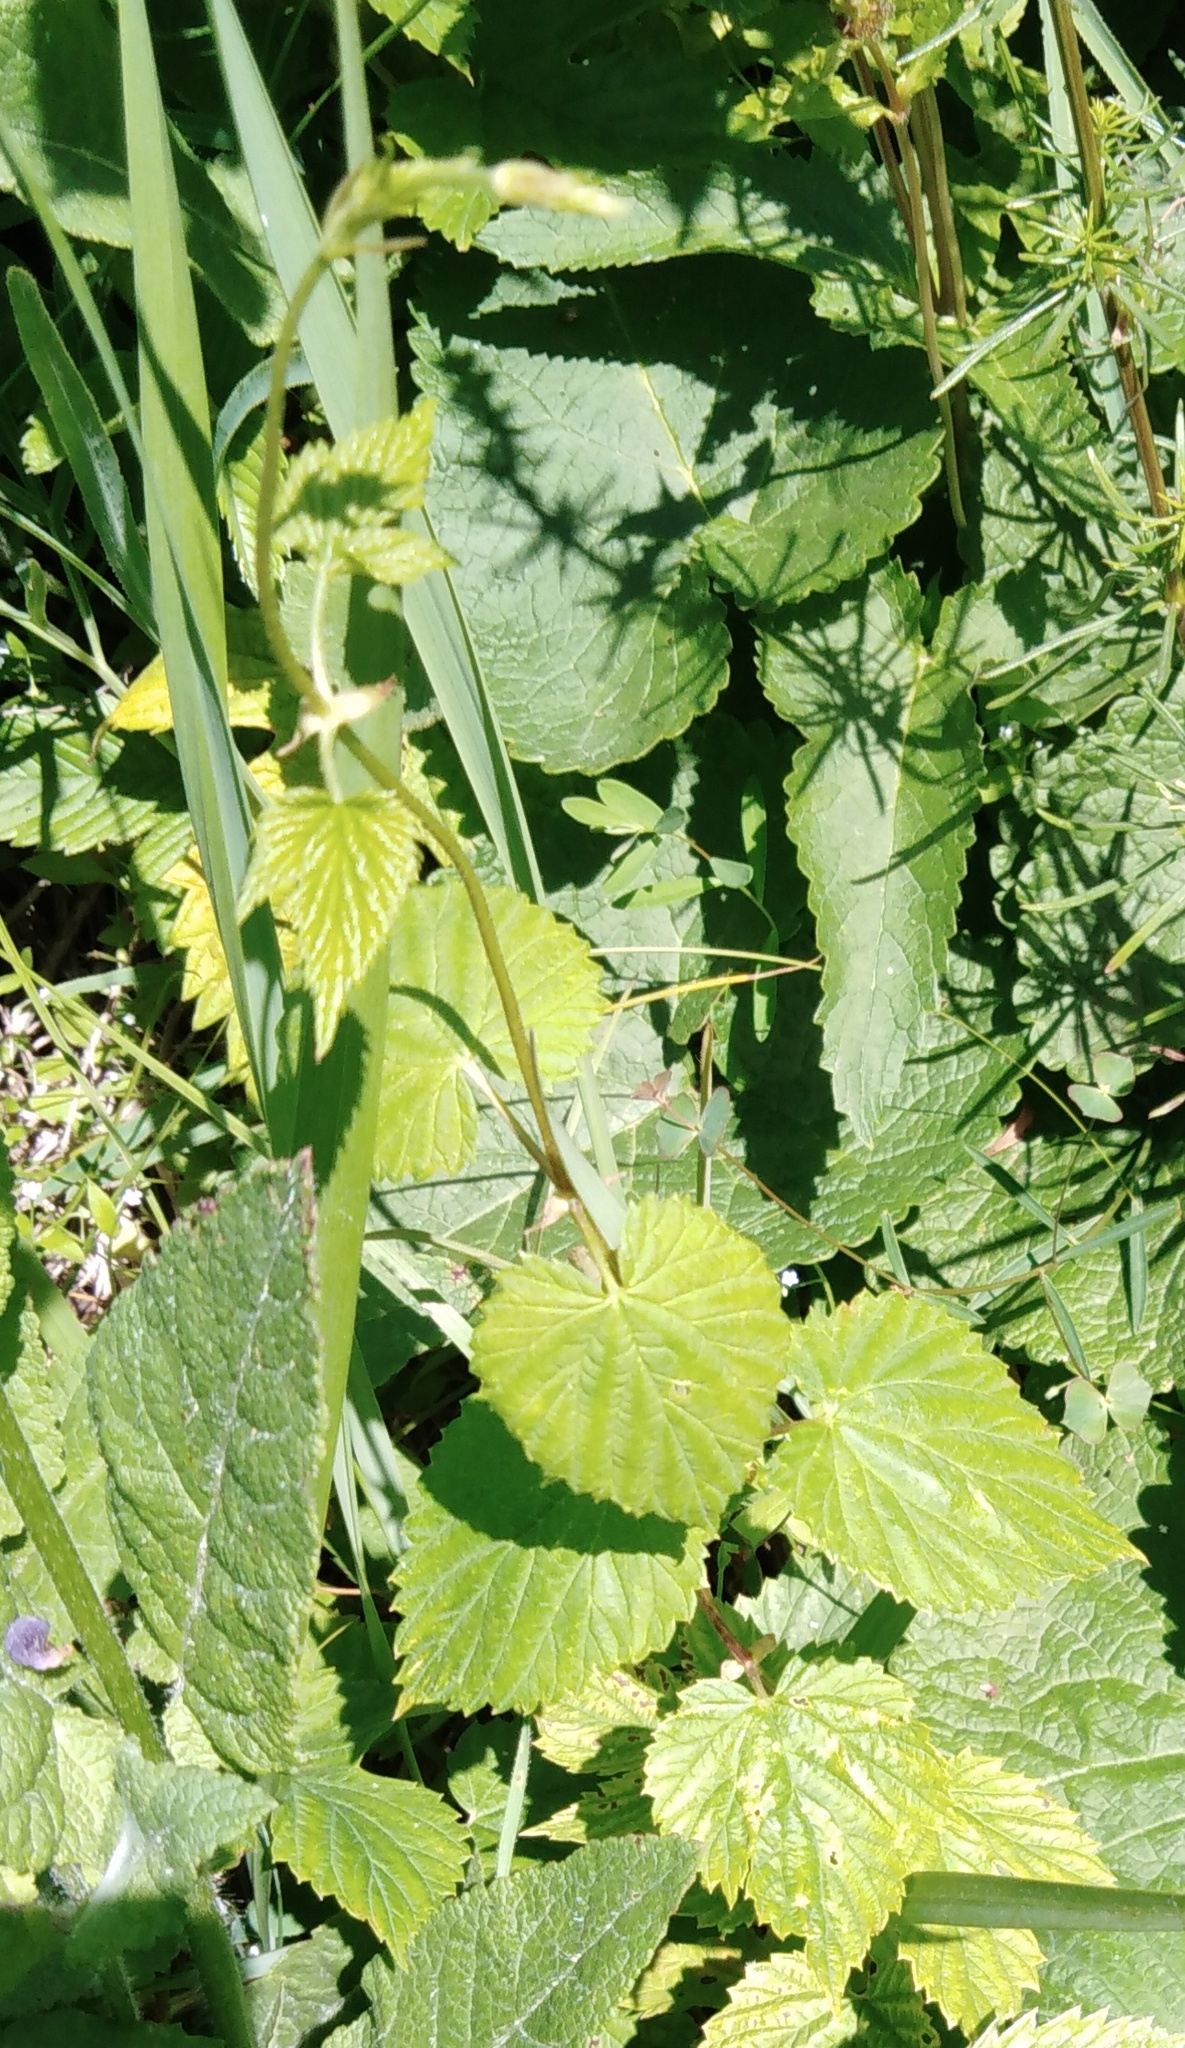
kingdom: Plantae
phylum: Tracheophyta
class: Magnoliopsida
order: Rosales
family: Cannabaceae
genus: Humulus
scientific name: Humulus lupulus
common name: Hop
